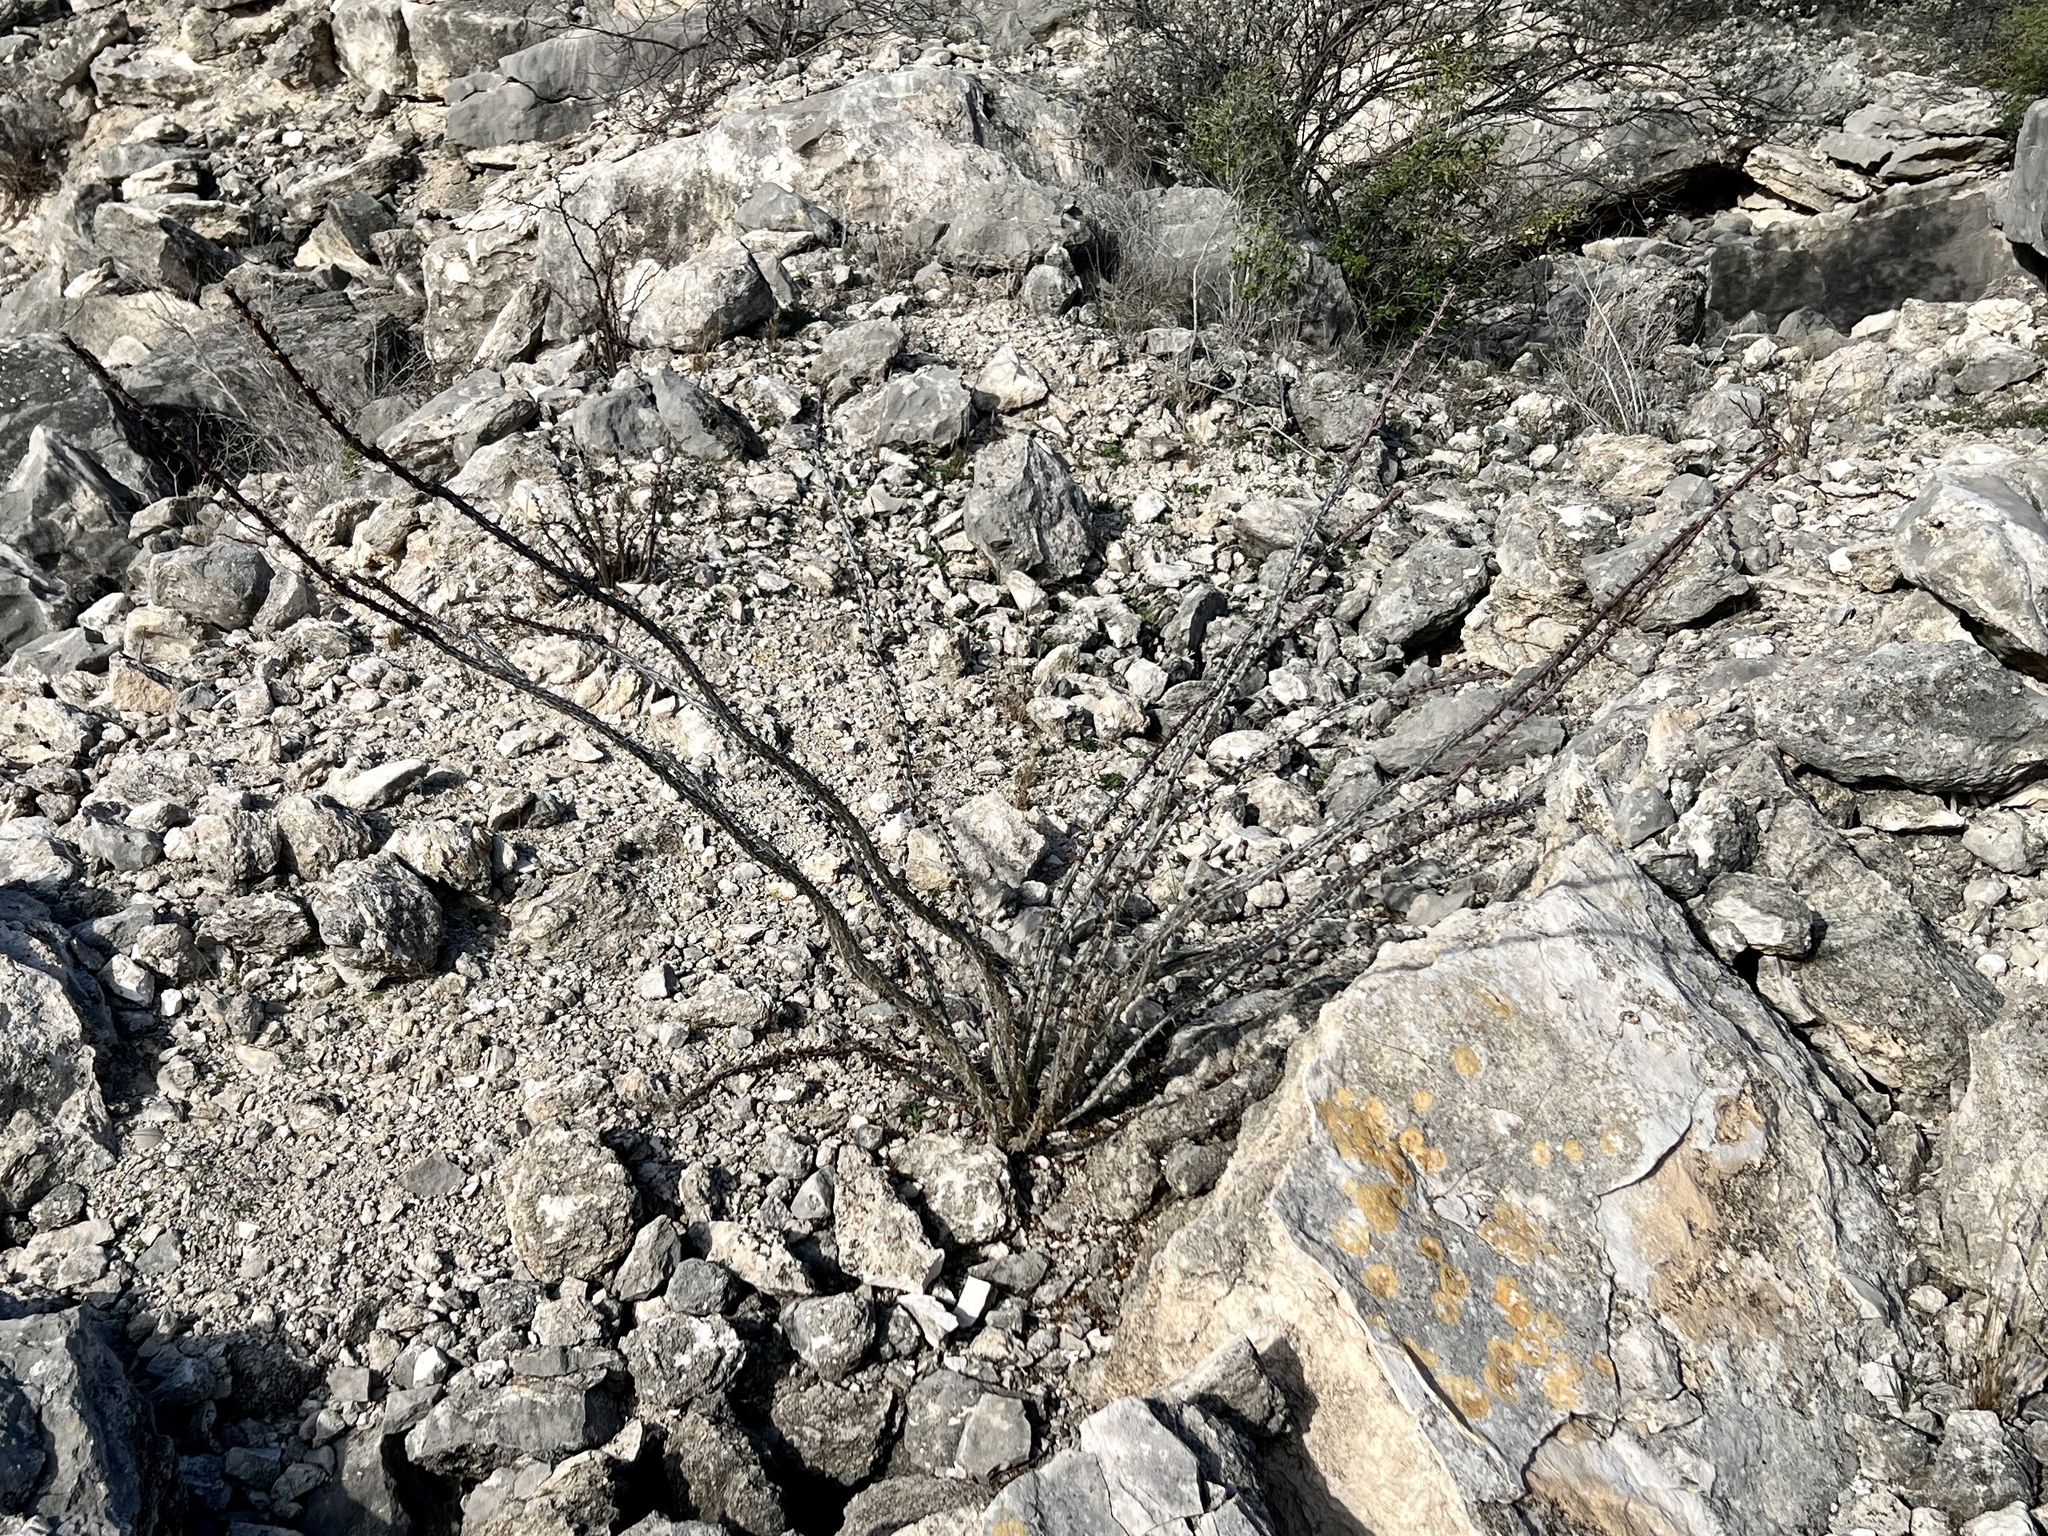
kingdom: Plantae
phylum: Tracheophyta
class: Magnoliopsida
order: Ericales
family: Fouquieriaceae
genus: Fouquieria
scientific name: Fouquieria splendens
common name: Vine-cactus
